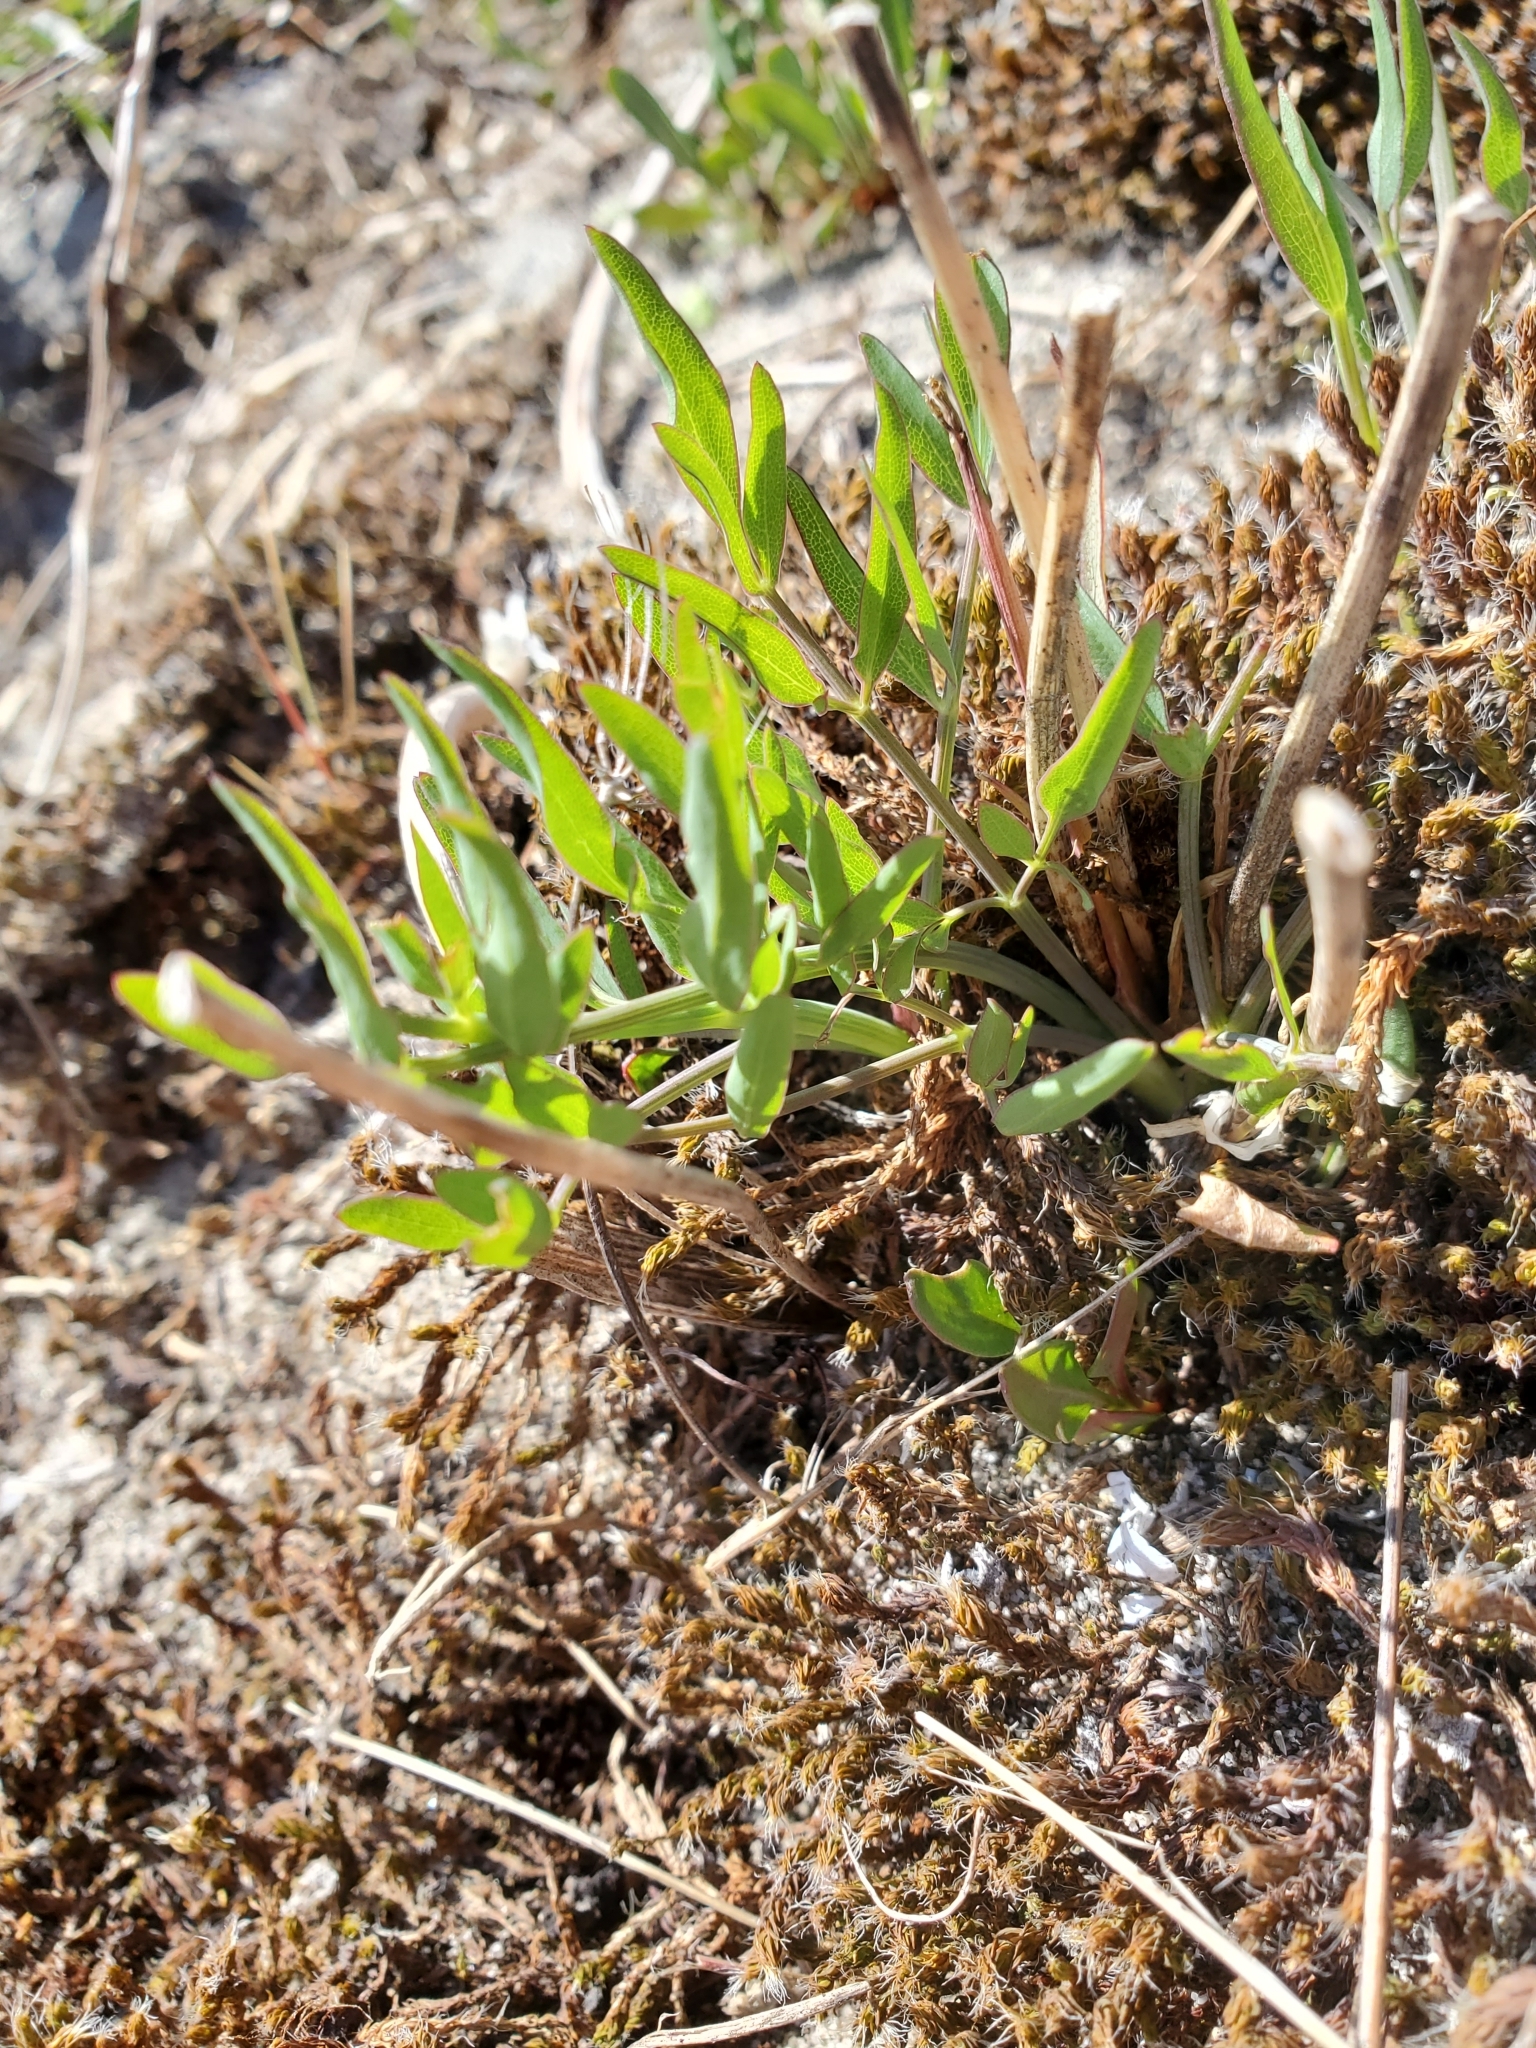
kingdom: Plantae
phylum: Tracheophyta
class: Magnoliopsida
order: Apiales
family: Apiaceae
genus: Lomatium
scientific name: Lomatium nudicaule
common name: Pestle lomatium
